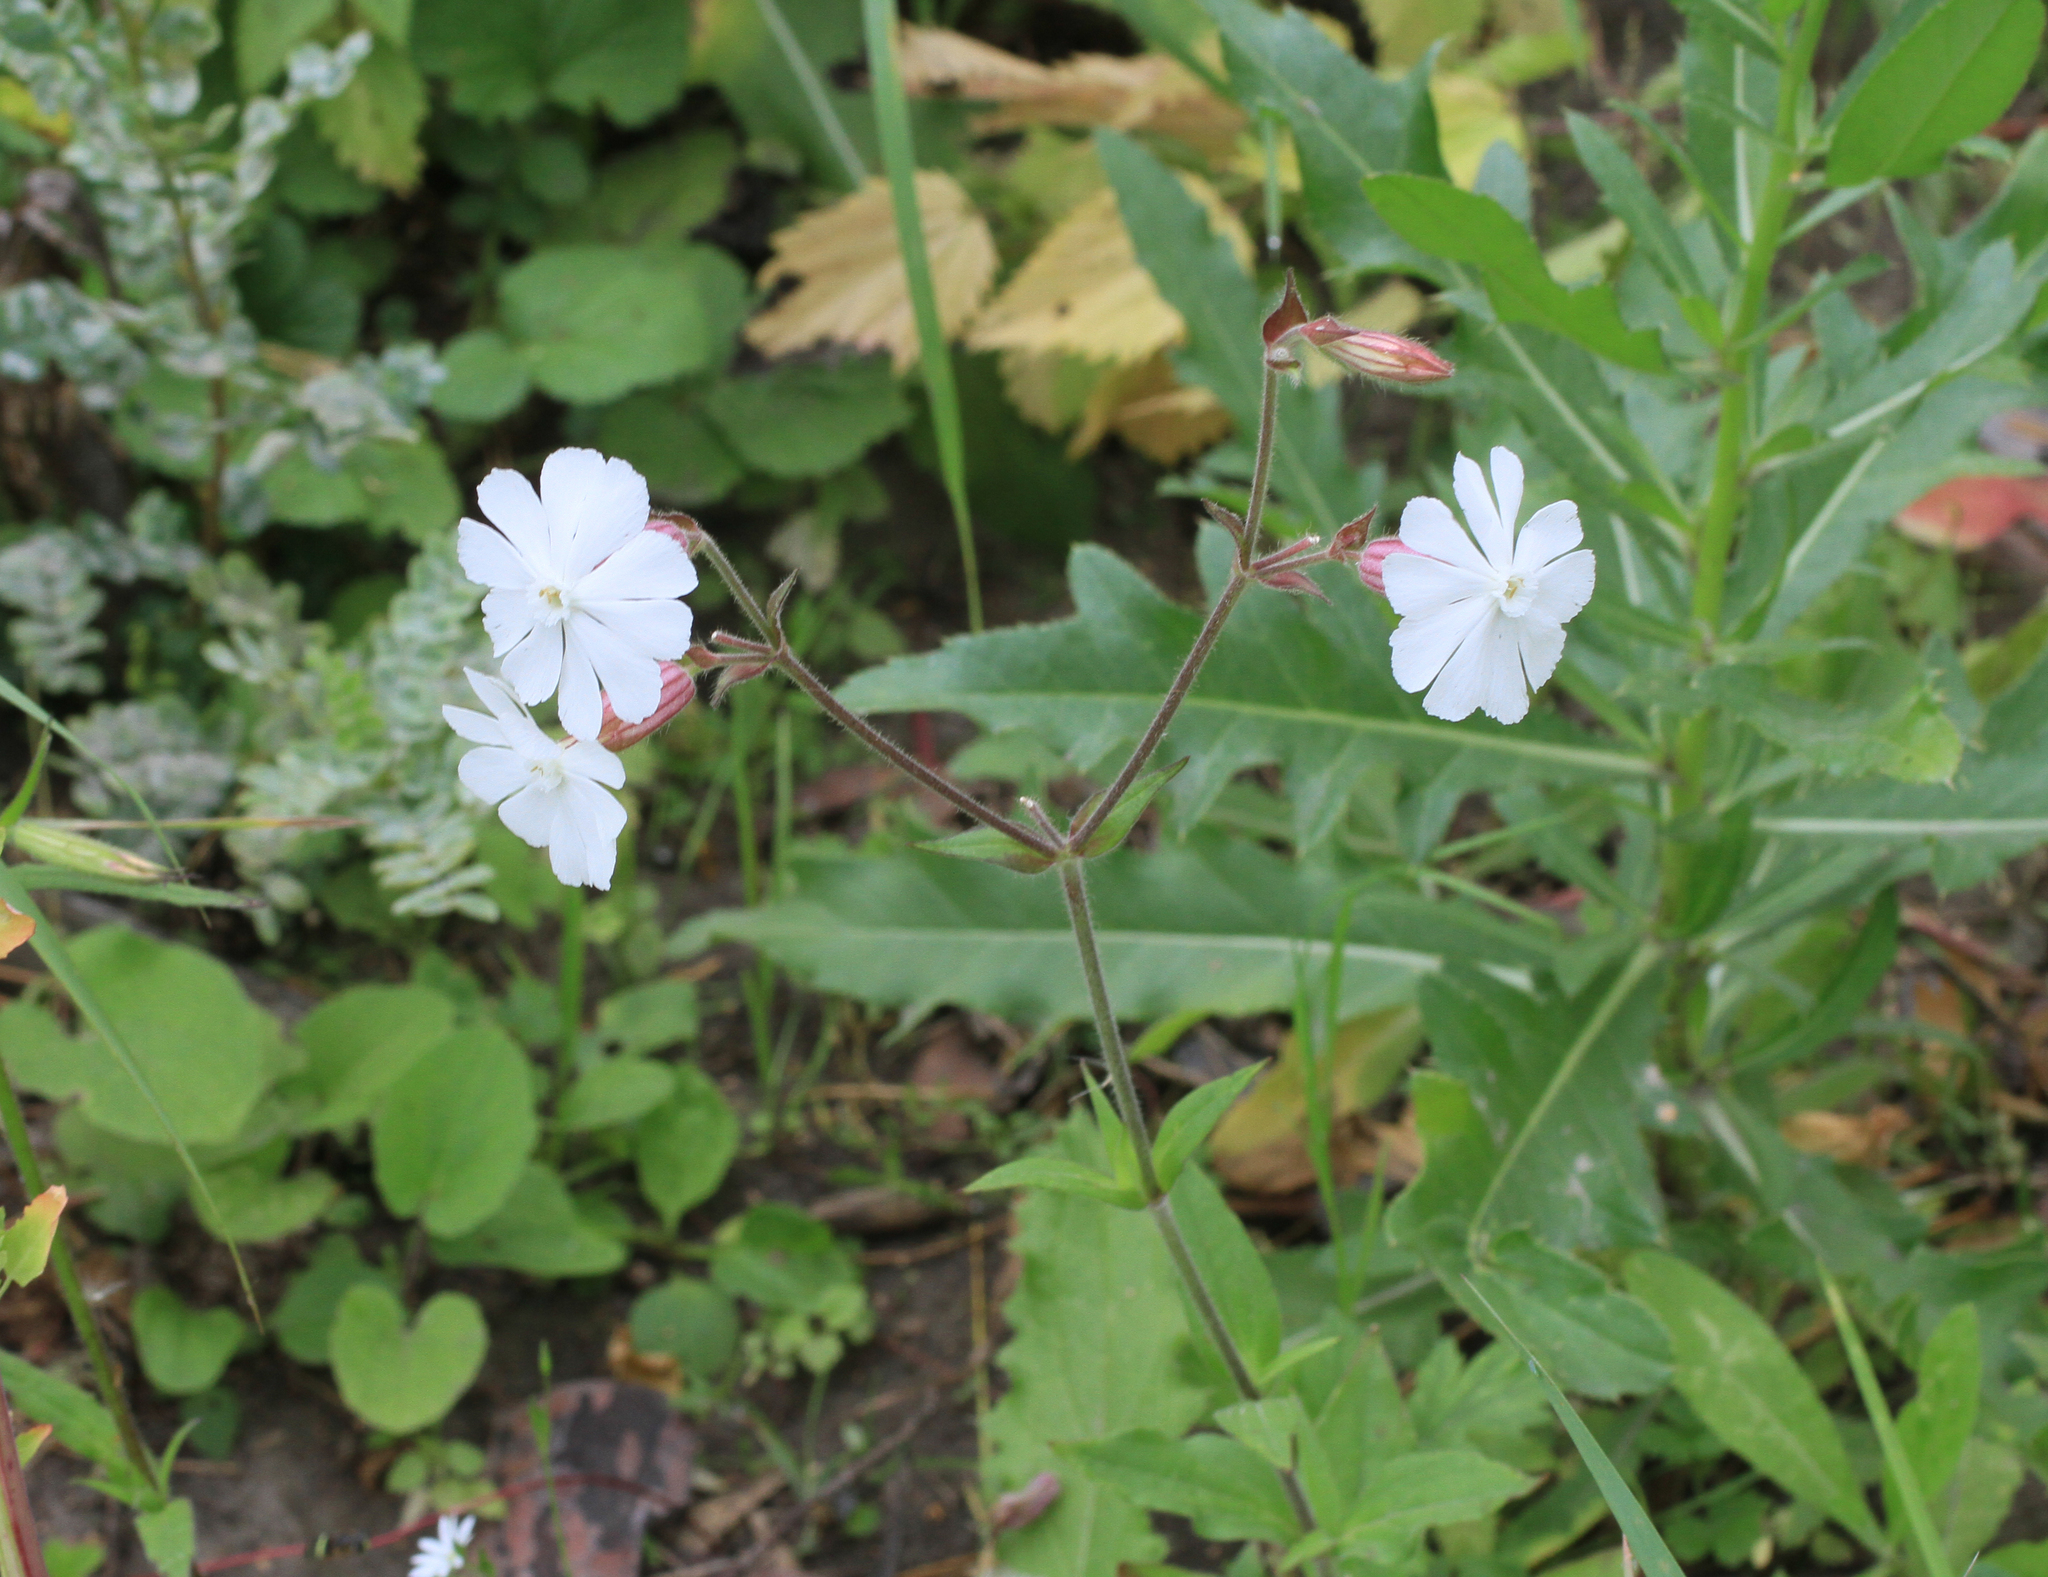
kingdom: Plantae
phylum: Tracheophyta
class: Magnoliopsida
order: Caryophyllales
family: Caryophyllaceae
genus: Silene
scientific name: Silene latifolia
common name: White campion
